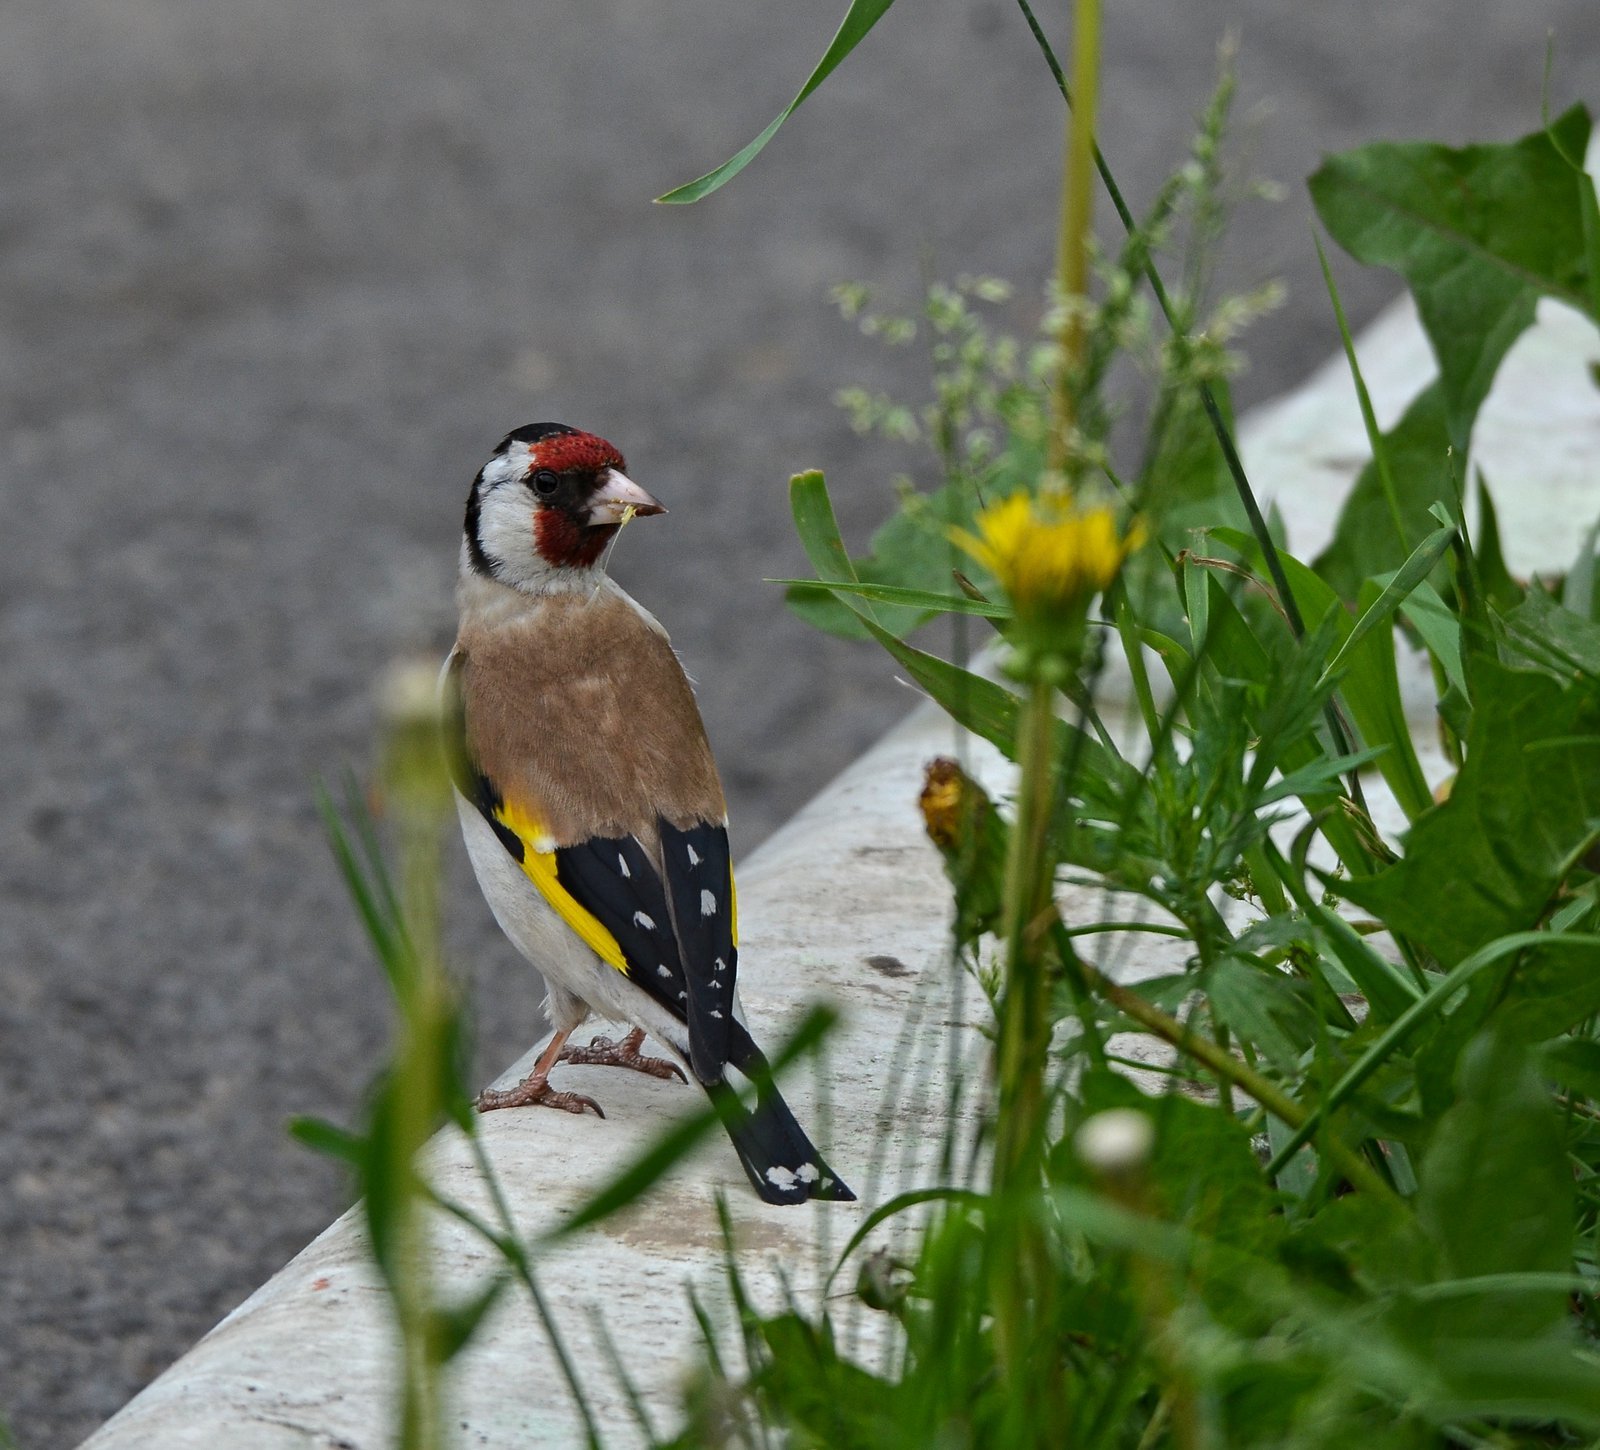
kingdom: Animalia
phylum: Chordata
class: Aves
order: Passeriformes
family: Fringillidae
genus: Carduelis
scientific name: Carduelis carduelis
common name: European goldfinch
